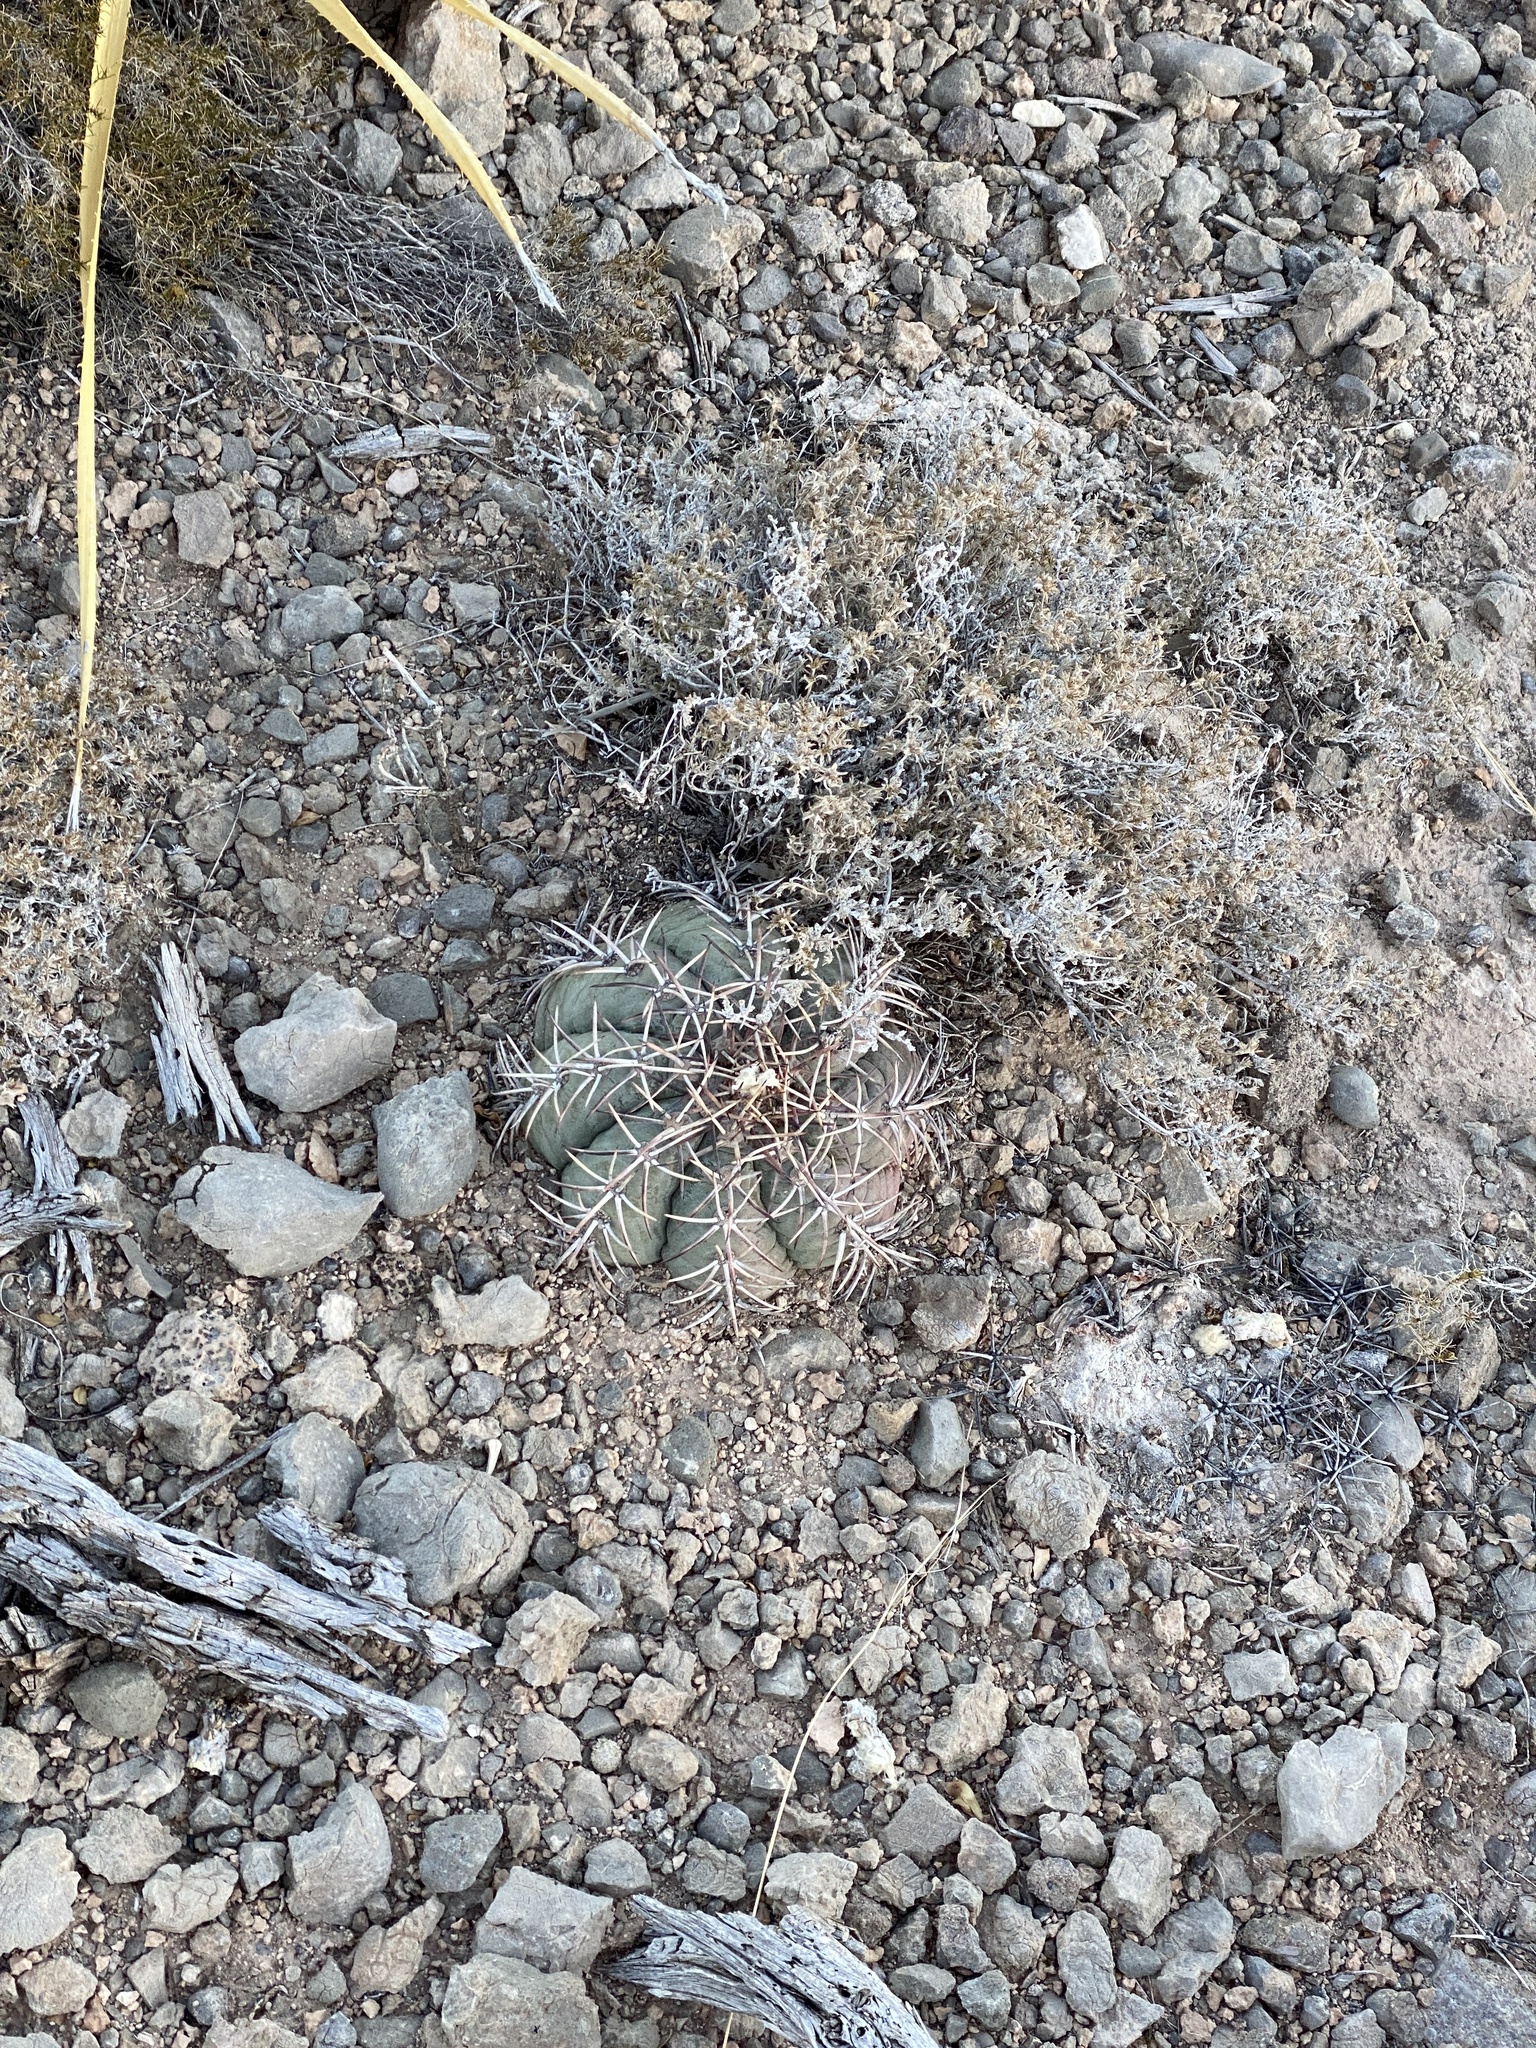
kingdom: Plantae
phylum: Tracheophyta
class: Magnoliopsida
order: Caryophyllales
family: Cactaceae
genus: Echinocactus
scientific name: Echinocactus horizonthalonius
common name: Devilshead
